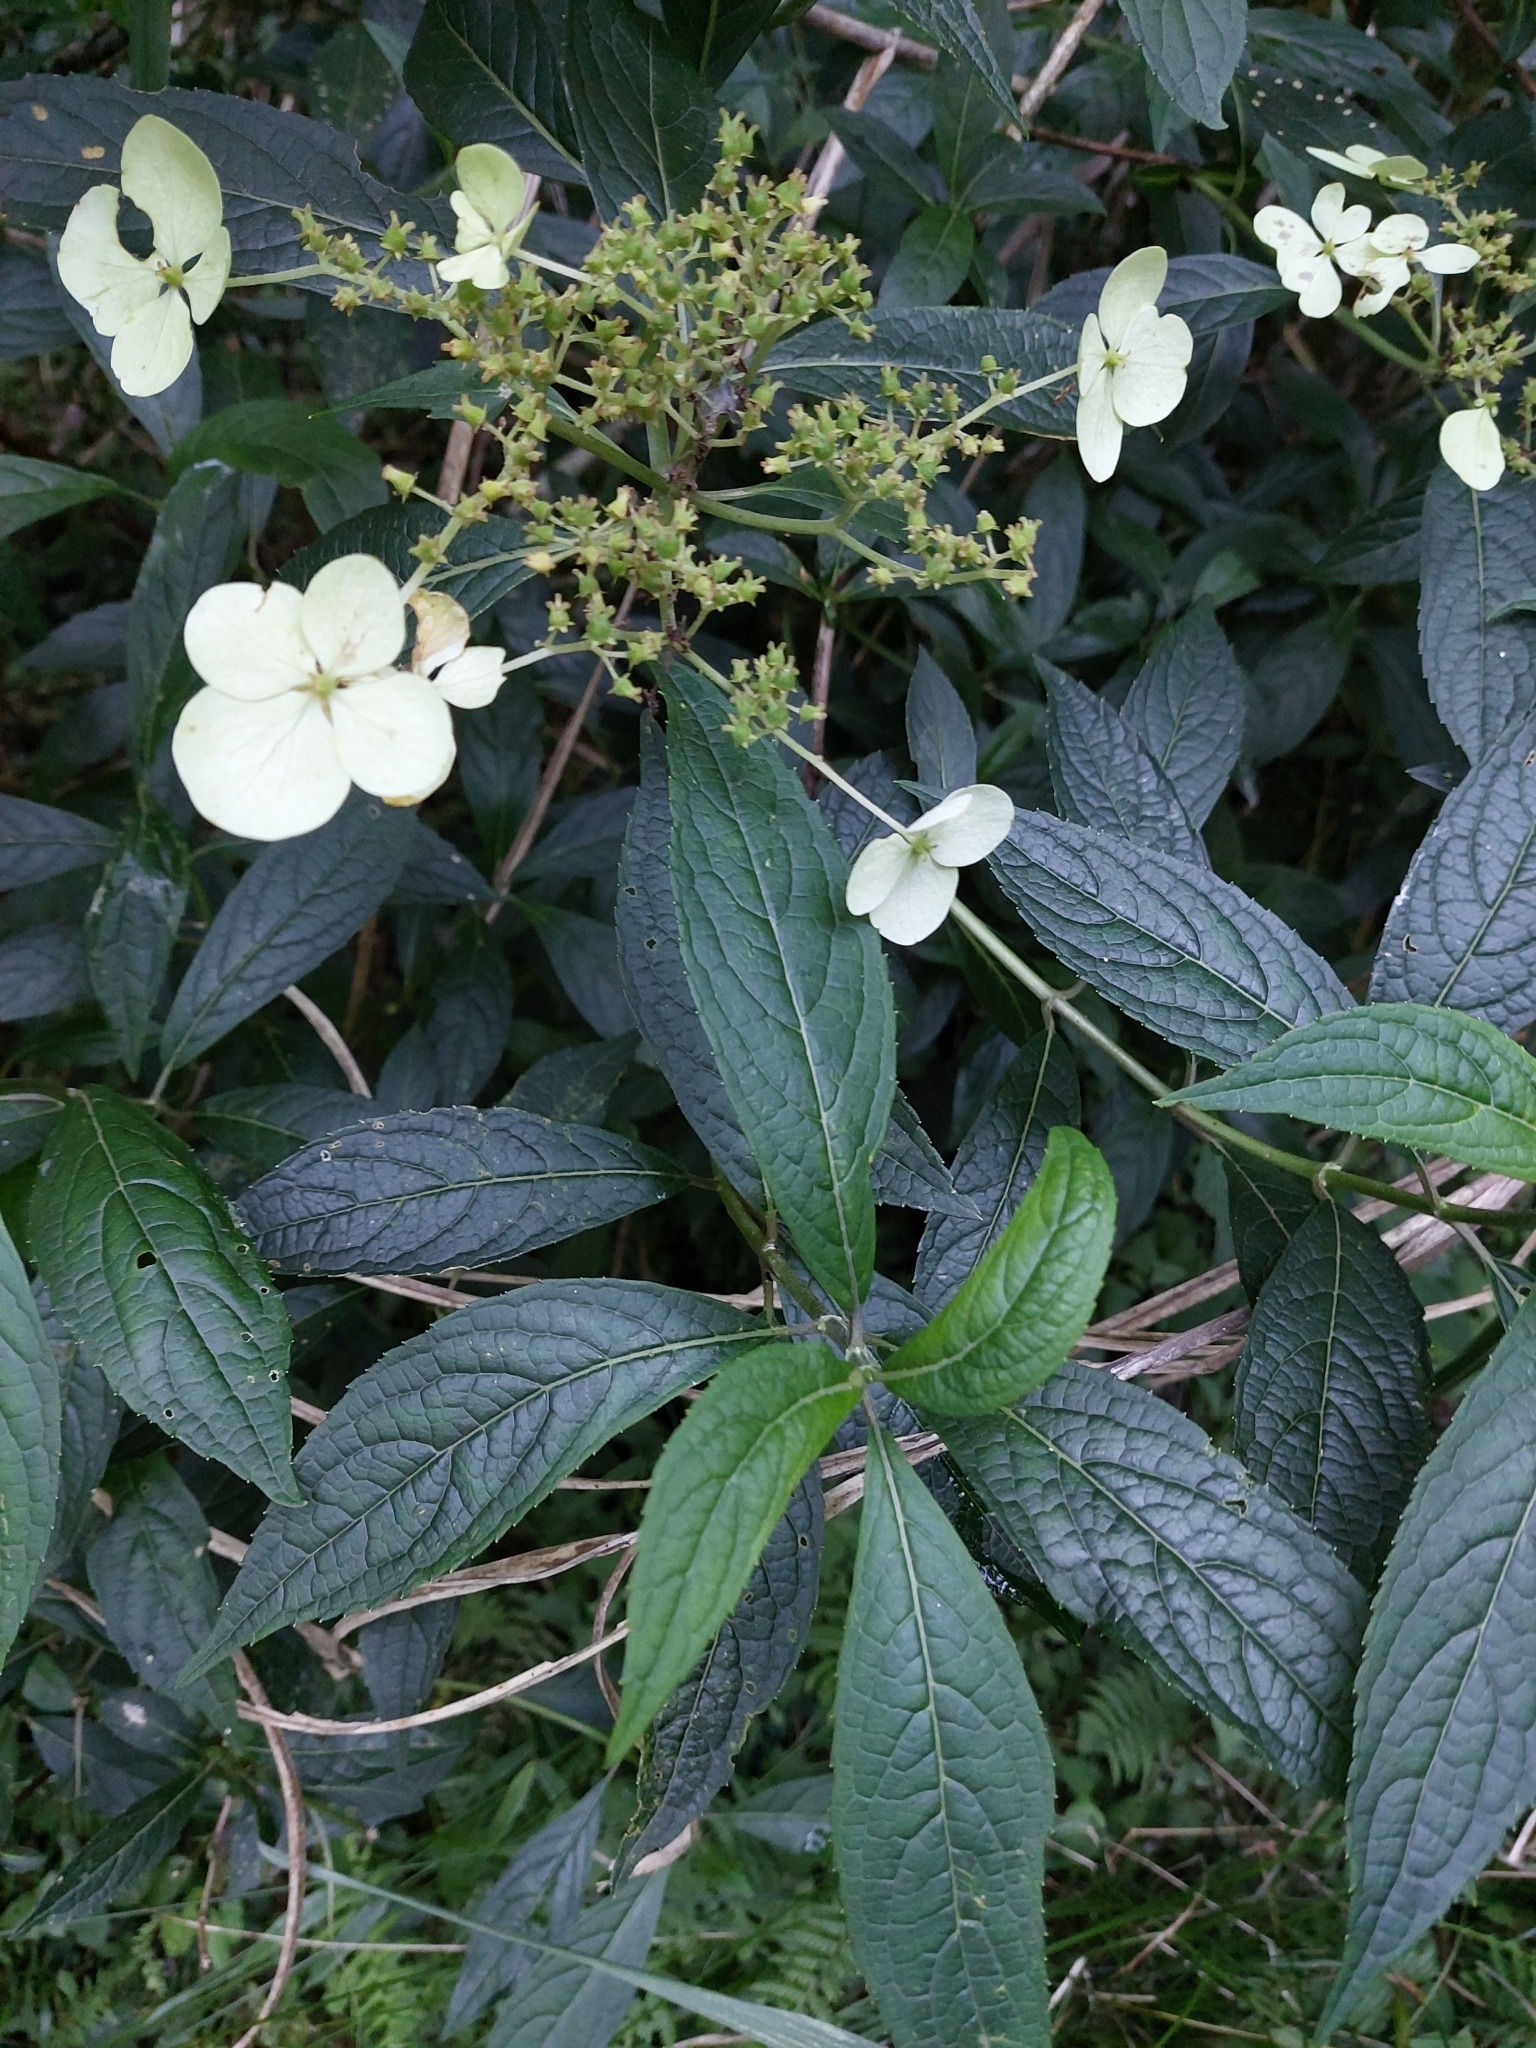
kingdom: Plantae
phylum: Tracheophyta
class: Magnoliopsida
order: Cornales
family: Hydrangeaceae
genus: Hydrangea
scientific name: Hydrangea chinensis
